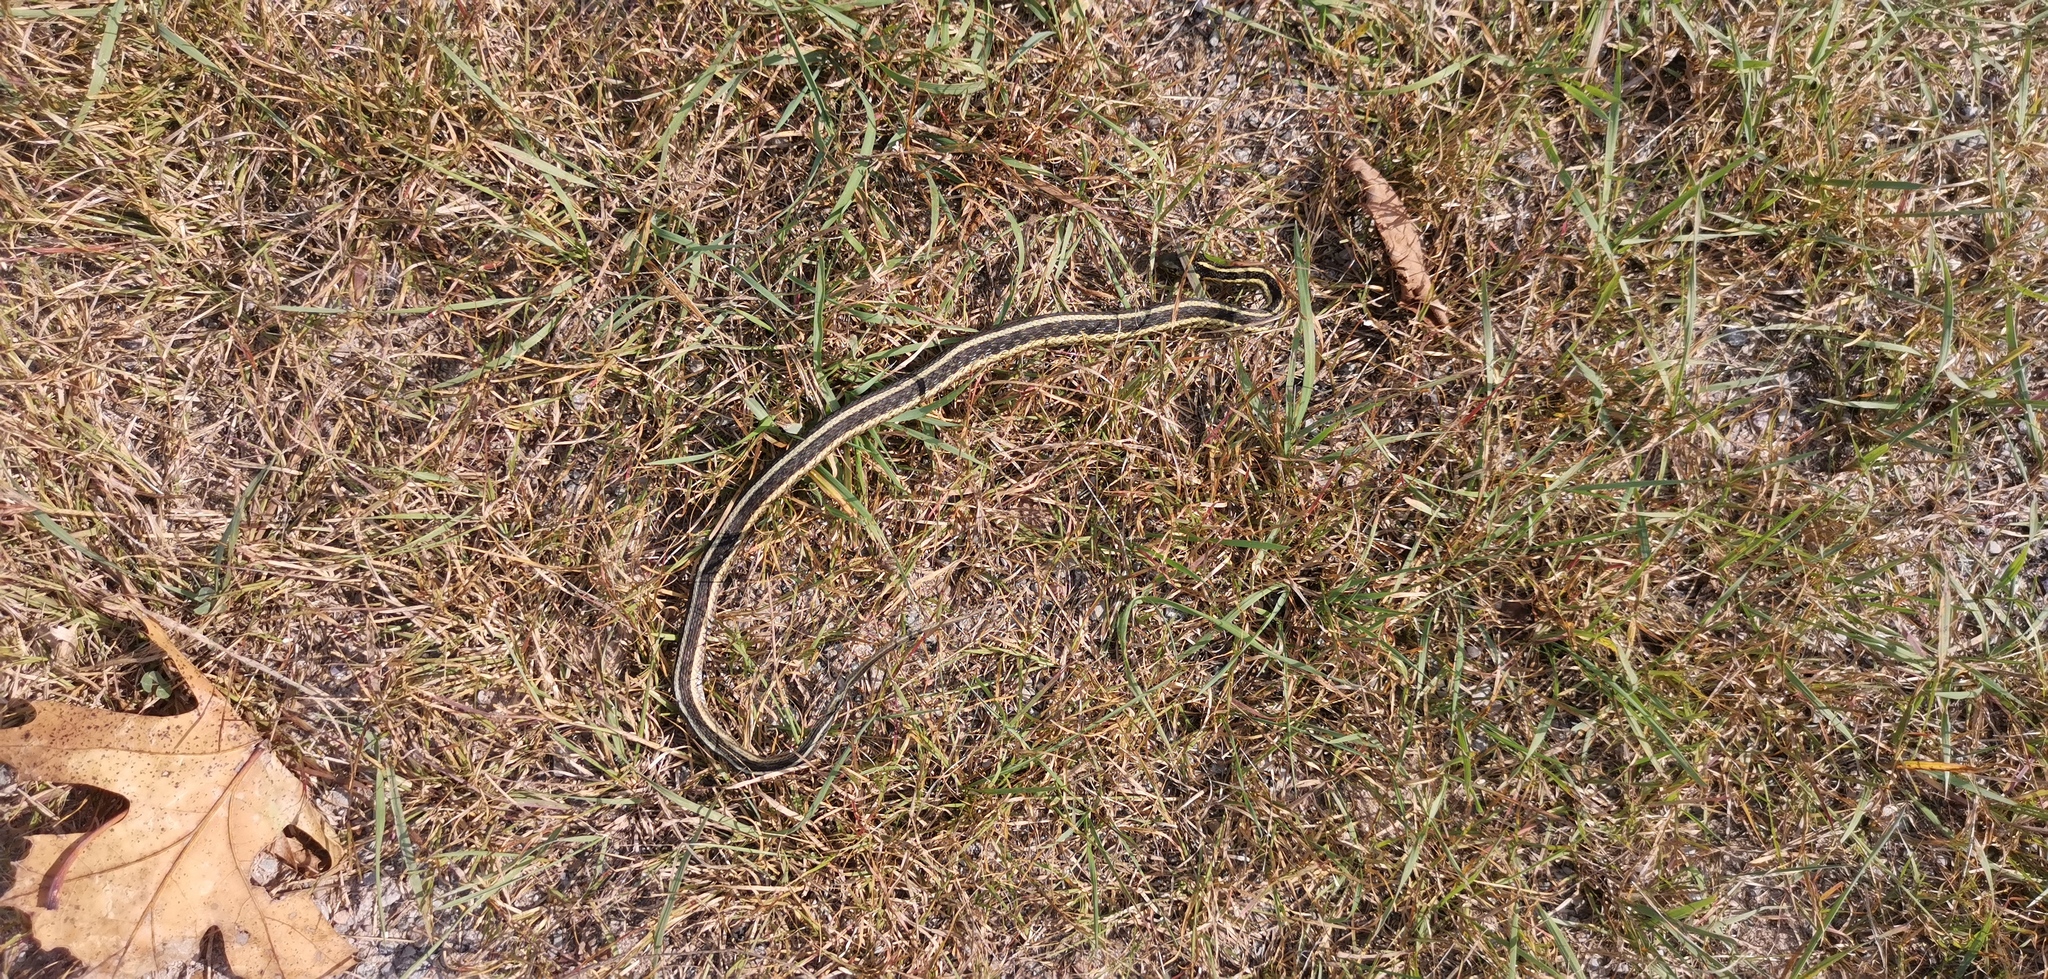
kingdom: Animalia
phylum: Chordata
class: Squamata
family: Colubridae
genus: Thamnophis
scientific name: Thamnophis sirtalis
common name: Common garter snake
